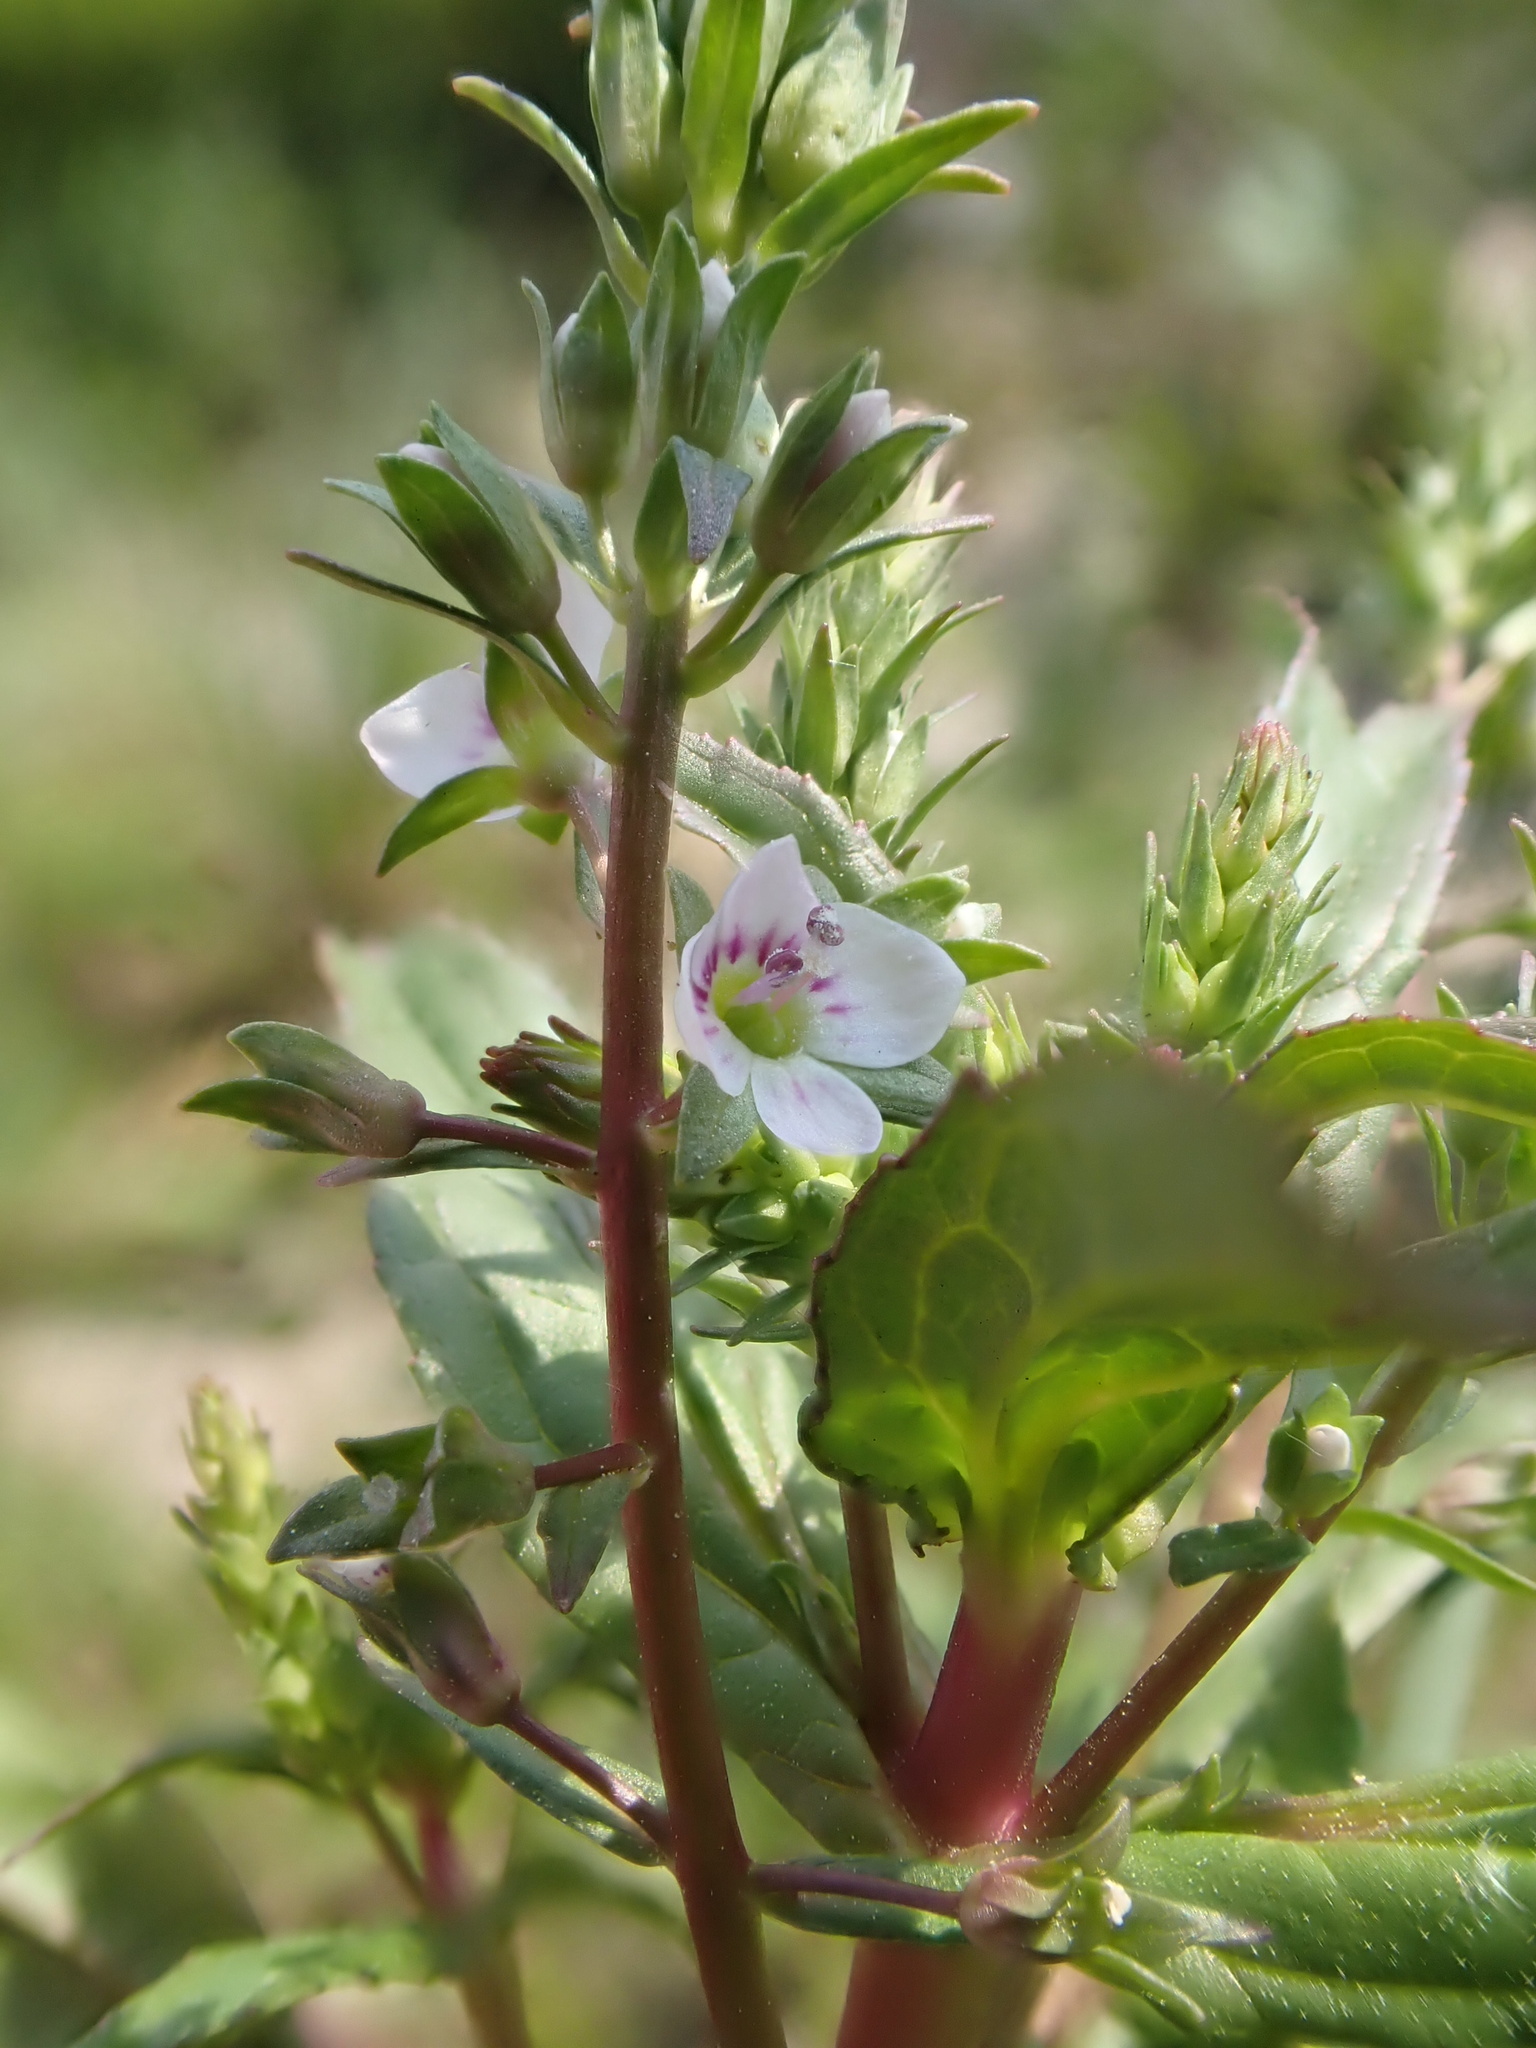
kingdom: Plantae
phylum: Tracheophyta
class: Magnoliopsida
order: Lamiales
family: Plantaginaceae
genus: Veronica
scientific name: Veronica catenata
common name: Pink water-speedwell
